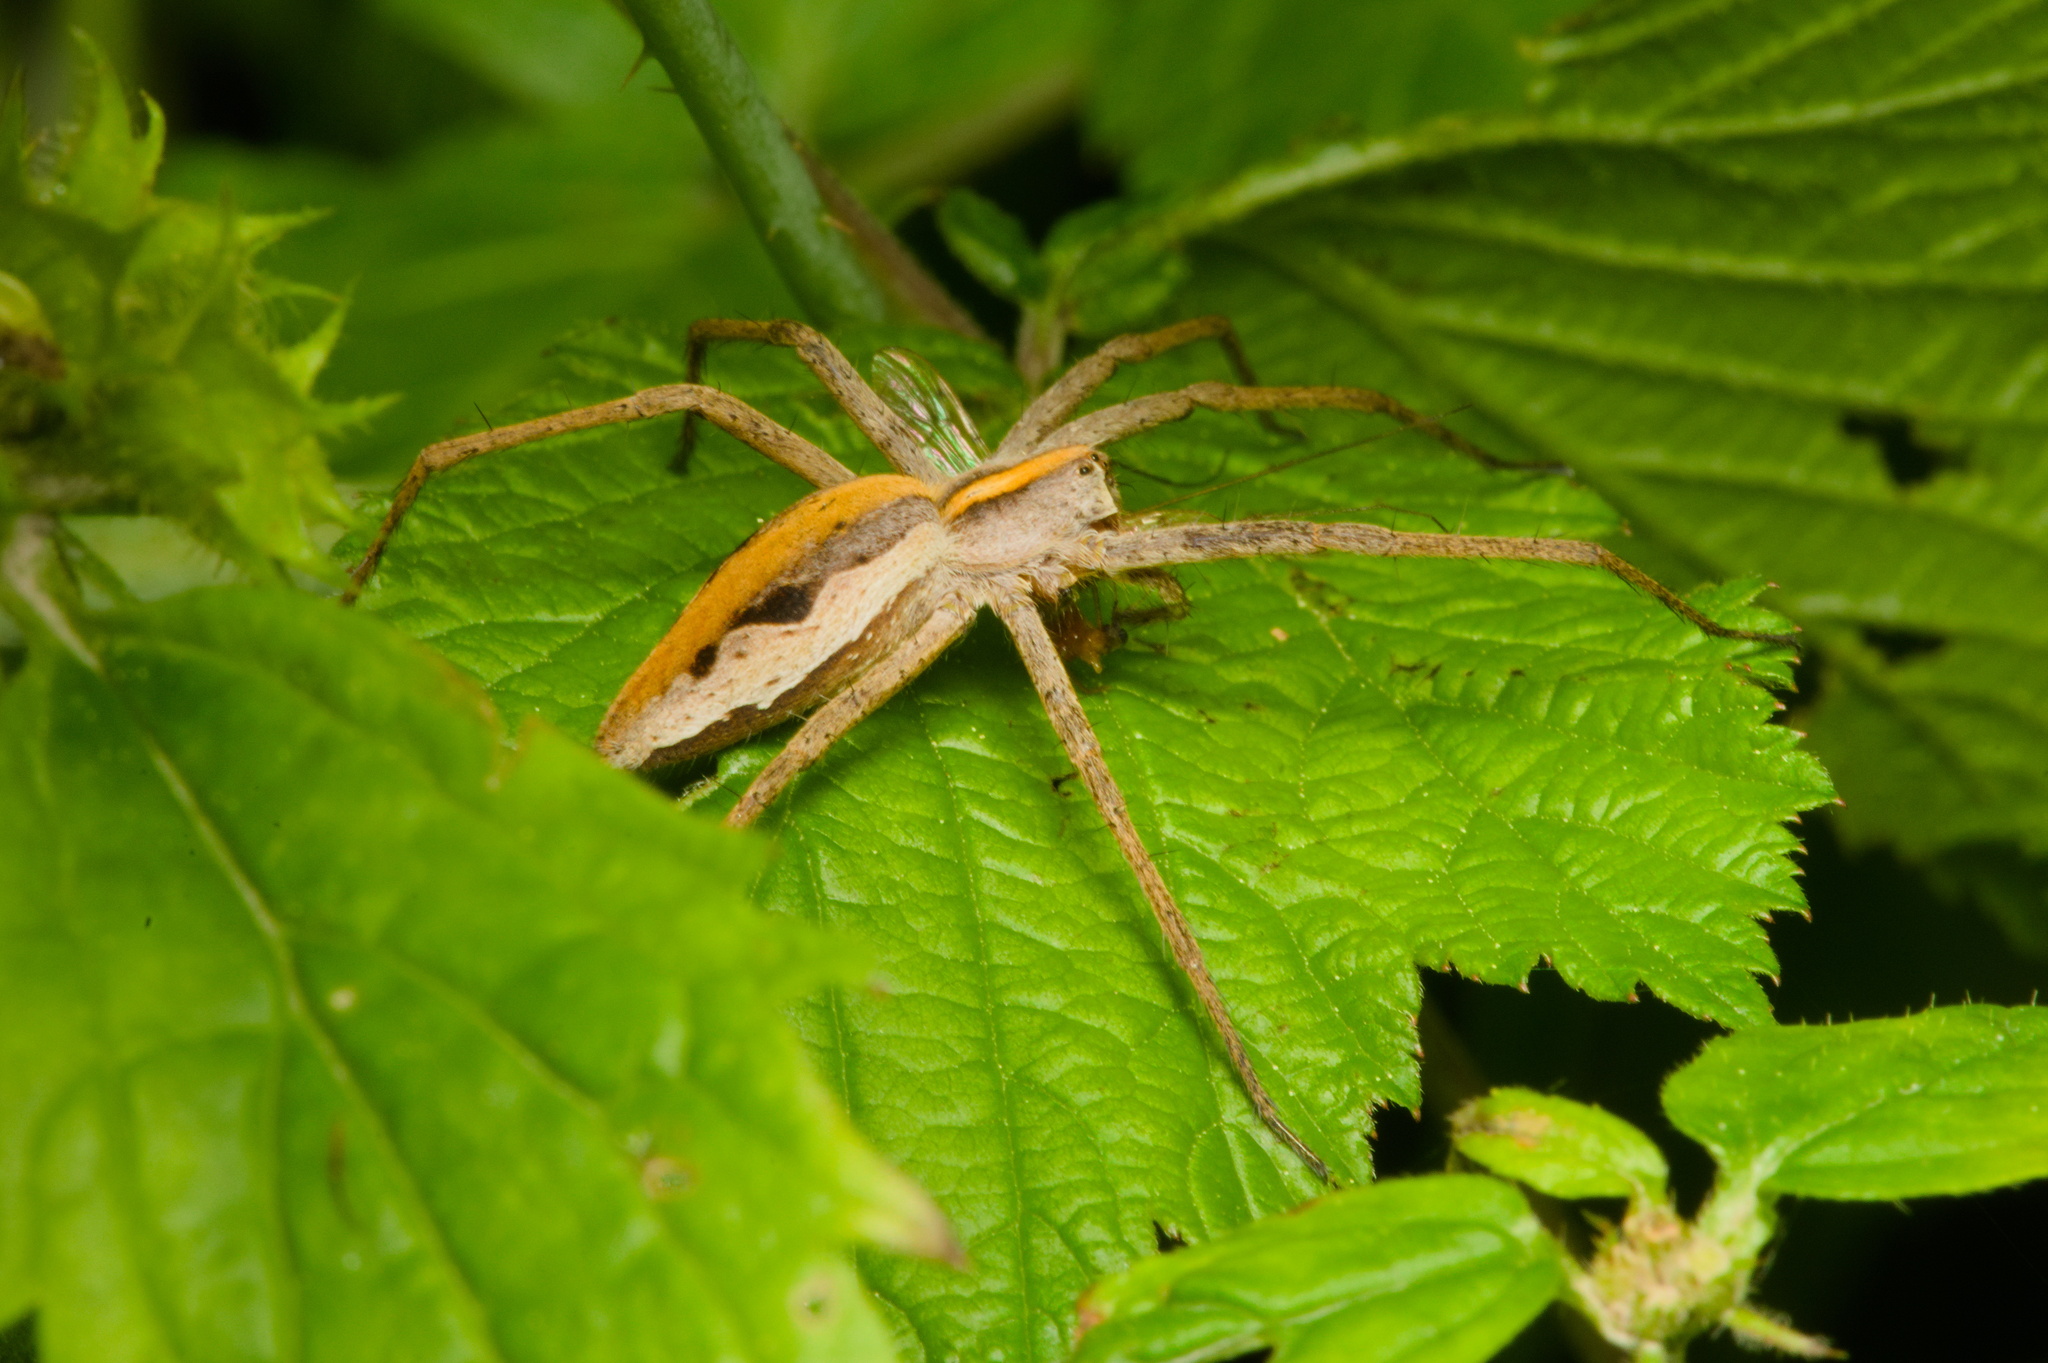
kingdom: Animalia
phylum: Arthropoda
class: Arachnida
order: Araneae
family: Pisauridae
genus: Pisaura
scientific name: Pisaura mirabilis
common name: Tent spider
